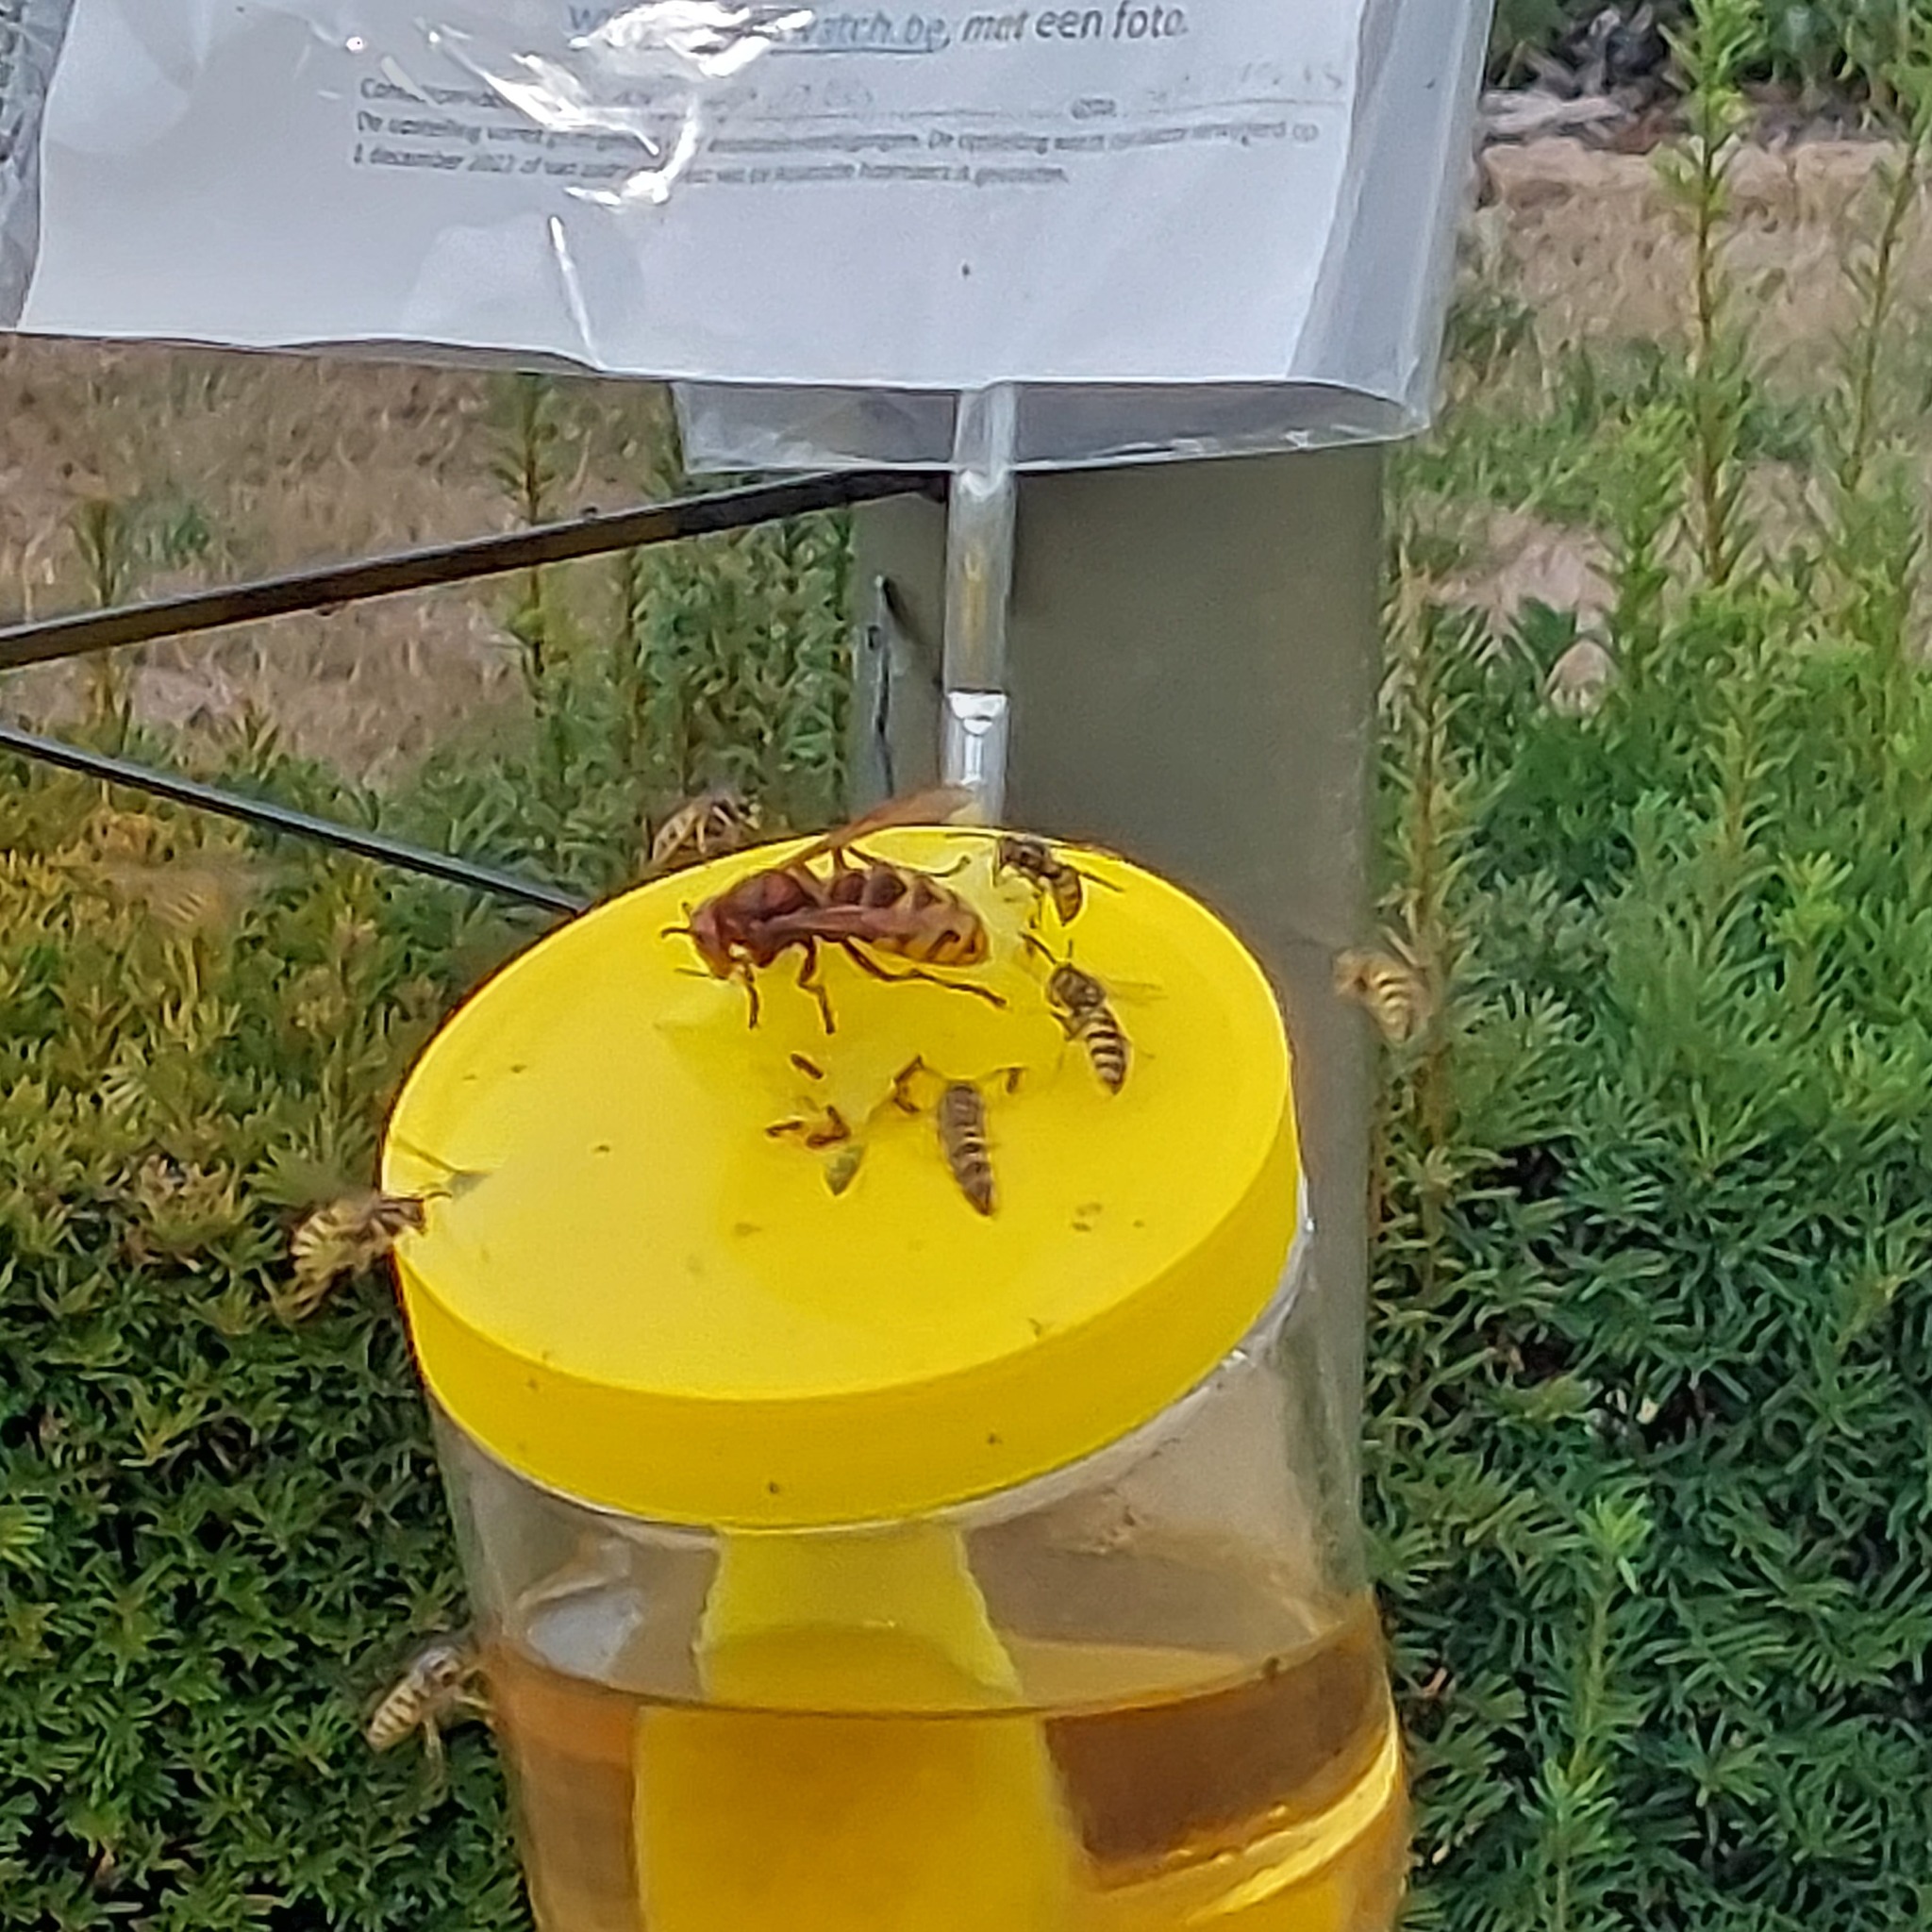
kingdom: Animalia
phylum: Arthropoda
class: Insecta
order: Hymenoptera
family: Vespidae
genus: Vespa
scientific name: Vespa crabro
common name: Hornet
